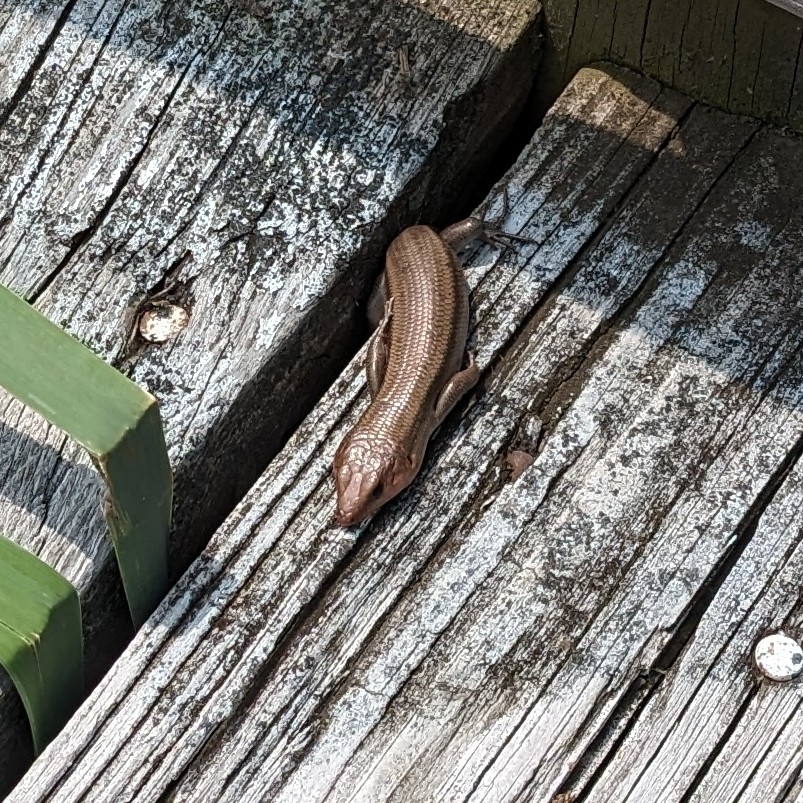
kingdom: Animalia
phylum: Chordata
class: Squamata
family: Scincidae
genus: Plestiodon
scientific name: Plestiodon fasciatus
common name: Five-lined skink
